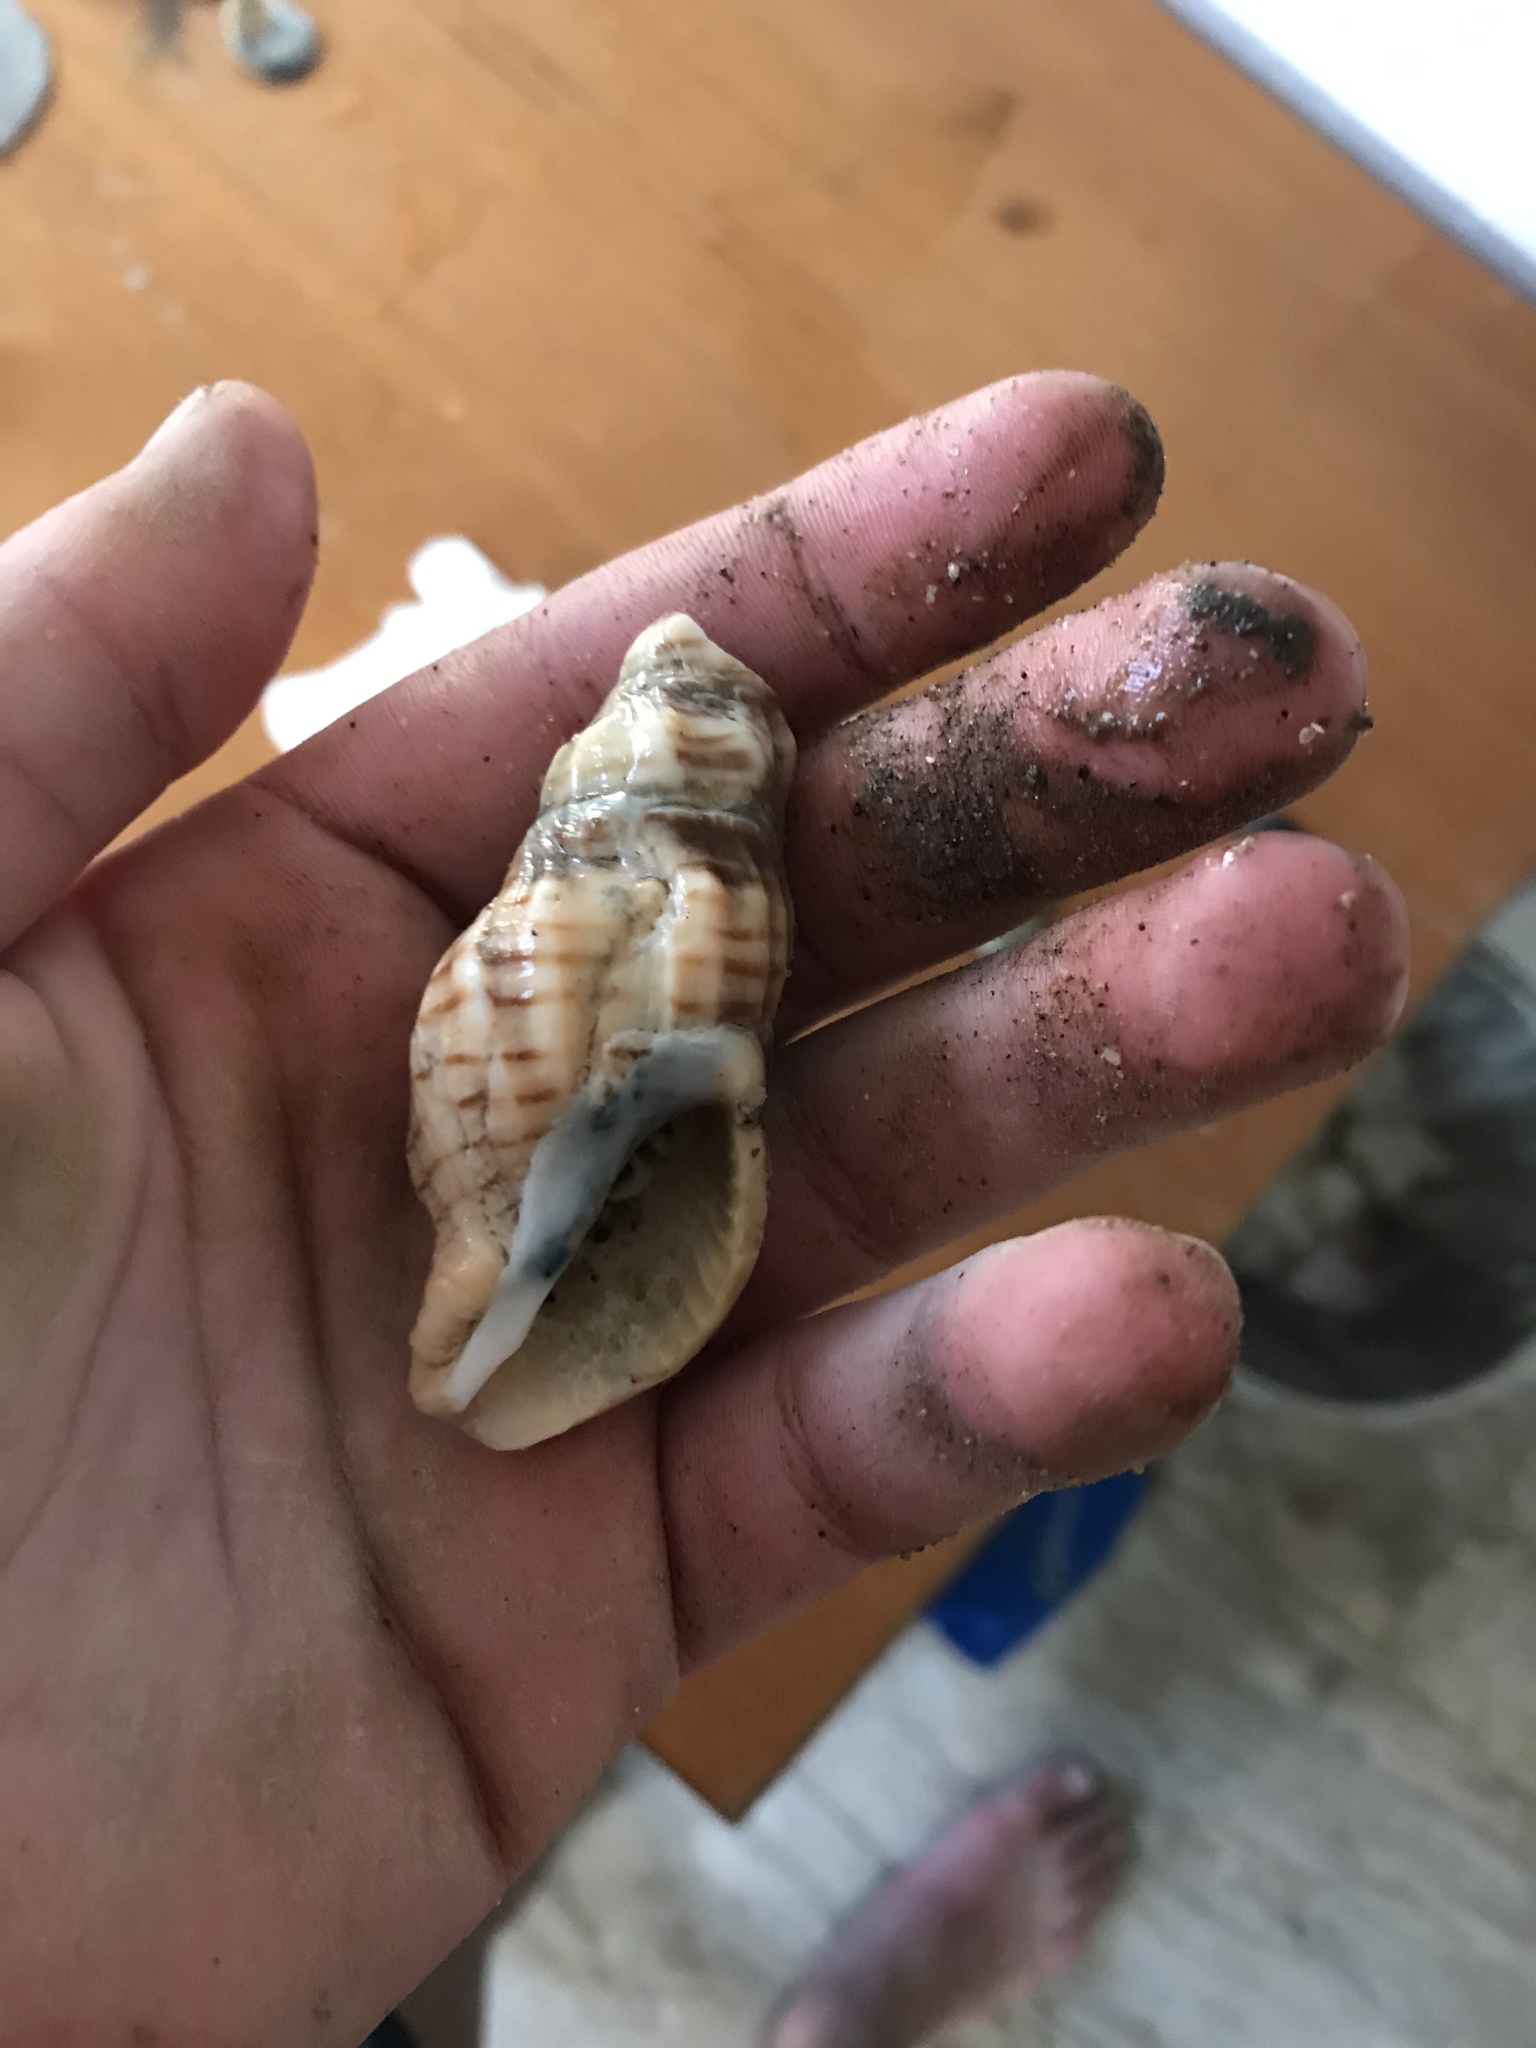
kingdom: Animalia
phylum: Mollusca
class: Gastropoda
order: Neogastropoda
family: Cancellariidae
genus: Cancellaria
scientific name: Cancellaria cooperii
